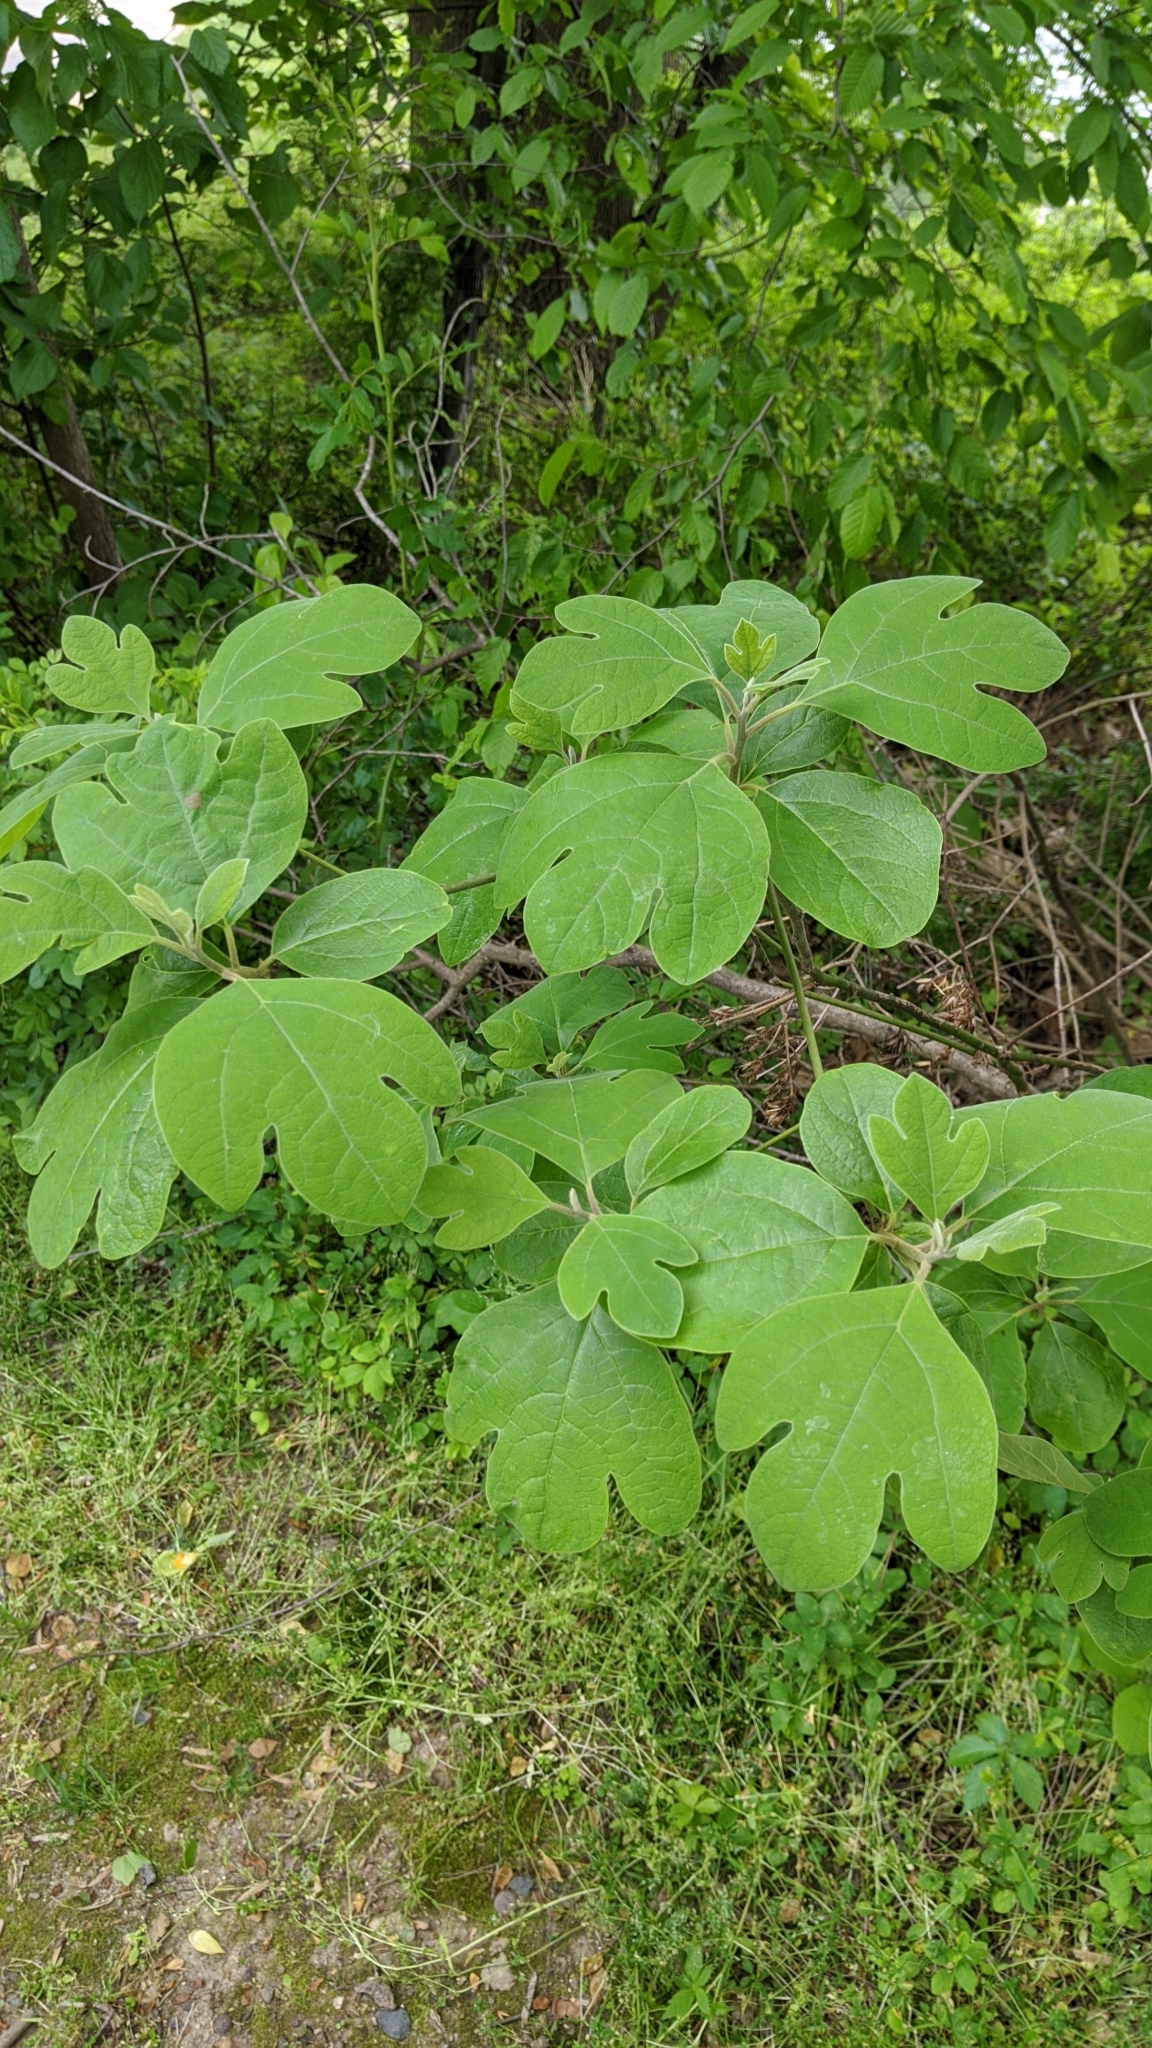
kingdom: Plantae
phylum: Tracheophyta
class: Magnoliopsida
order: Laurales
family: Lauraceae
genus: Sassafras
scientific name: Sassafras albidum
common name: Sassafras
